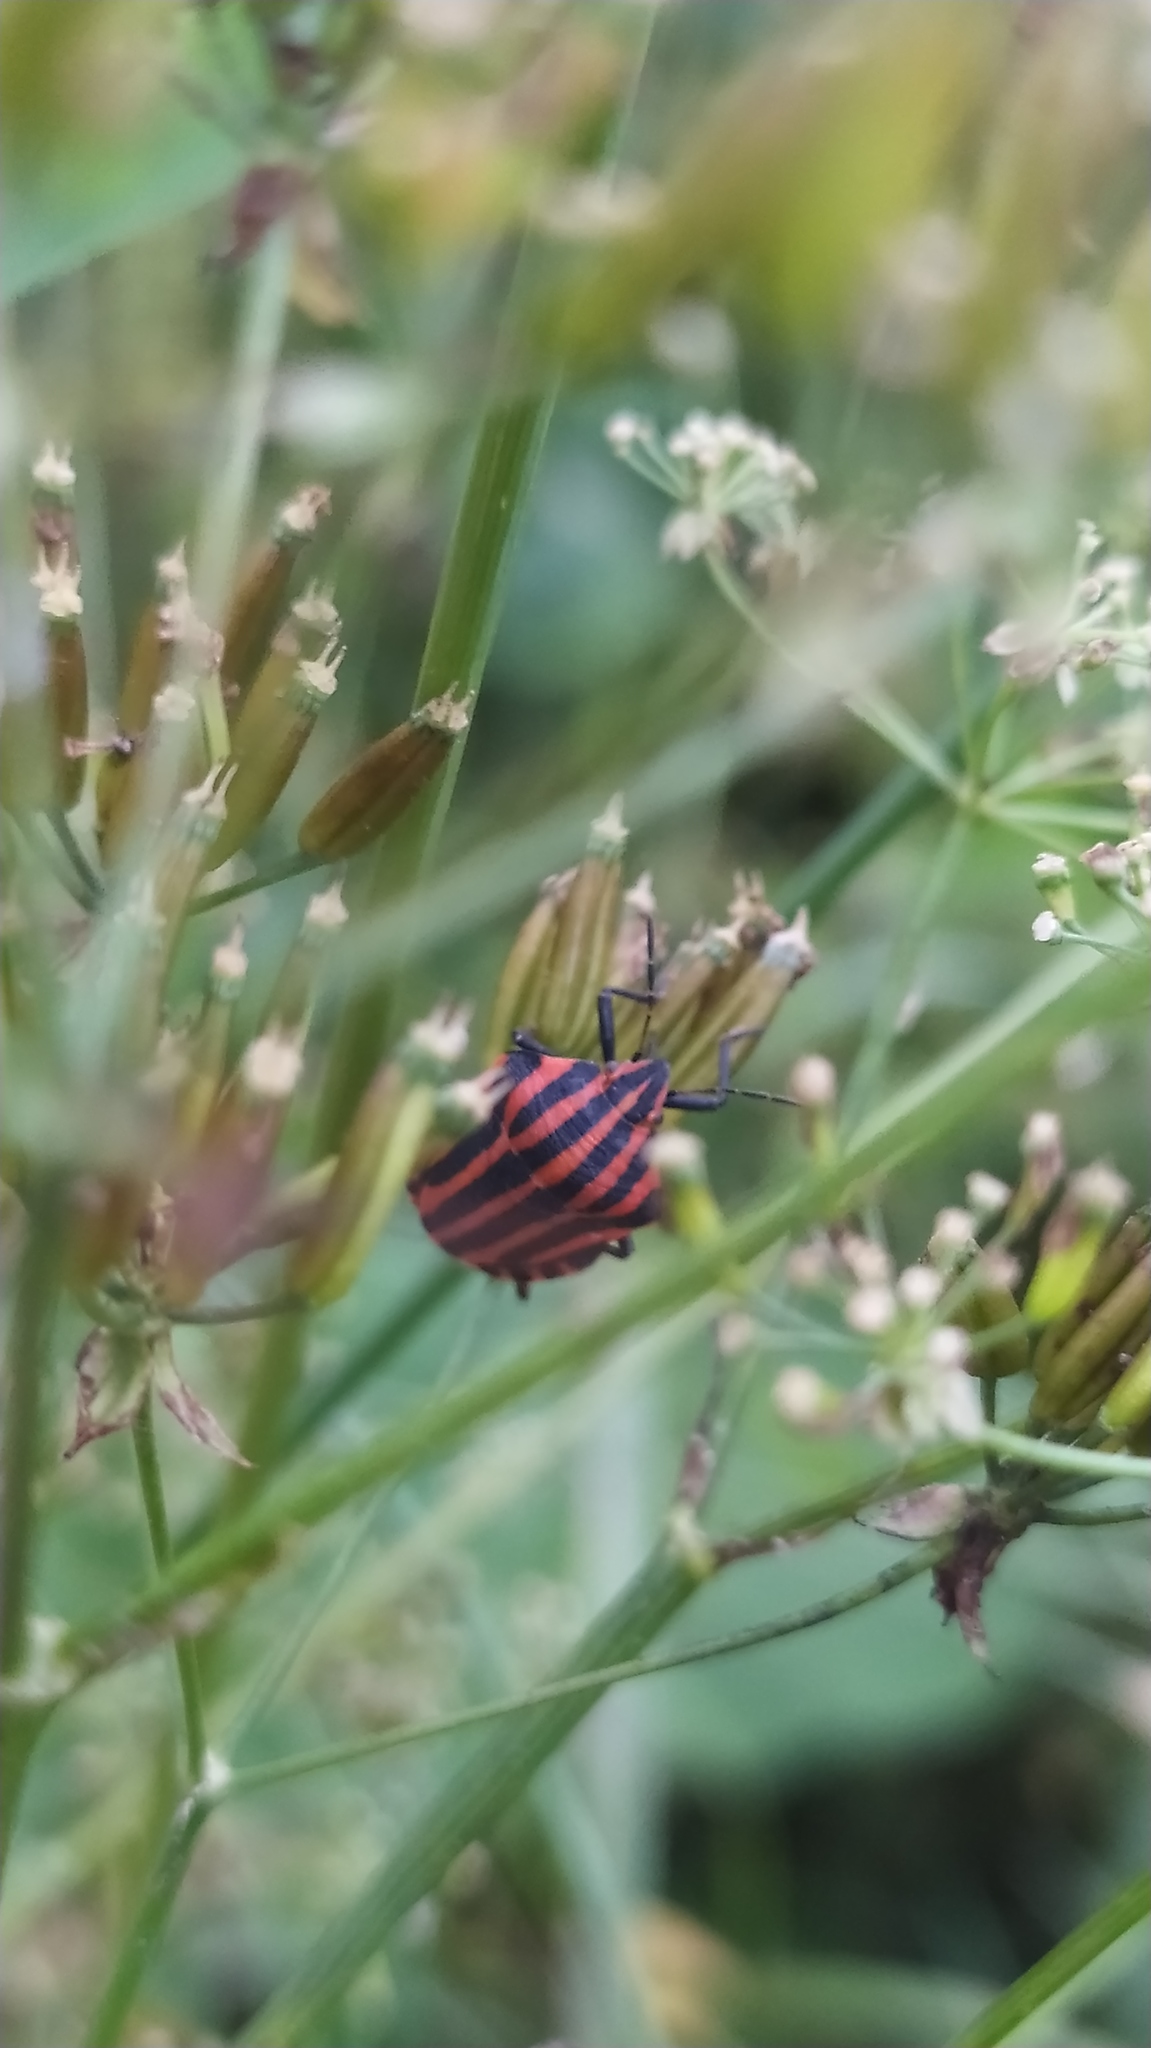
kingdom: Animalia
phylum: Arthropoda
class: Insecta
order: Hemiptera
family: Pentatomidae
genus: Graphosoma
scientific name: Graphosoma italicum
